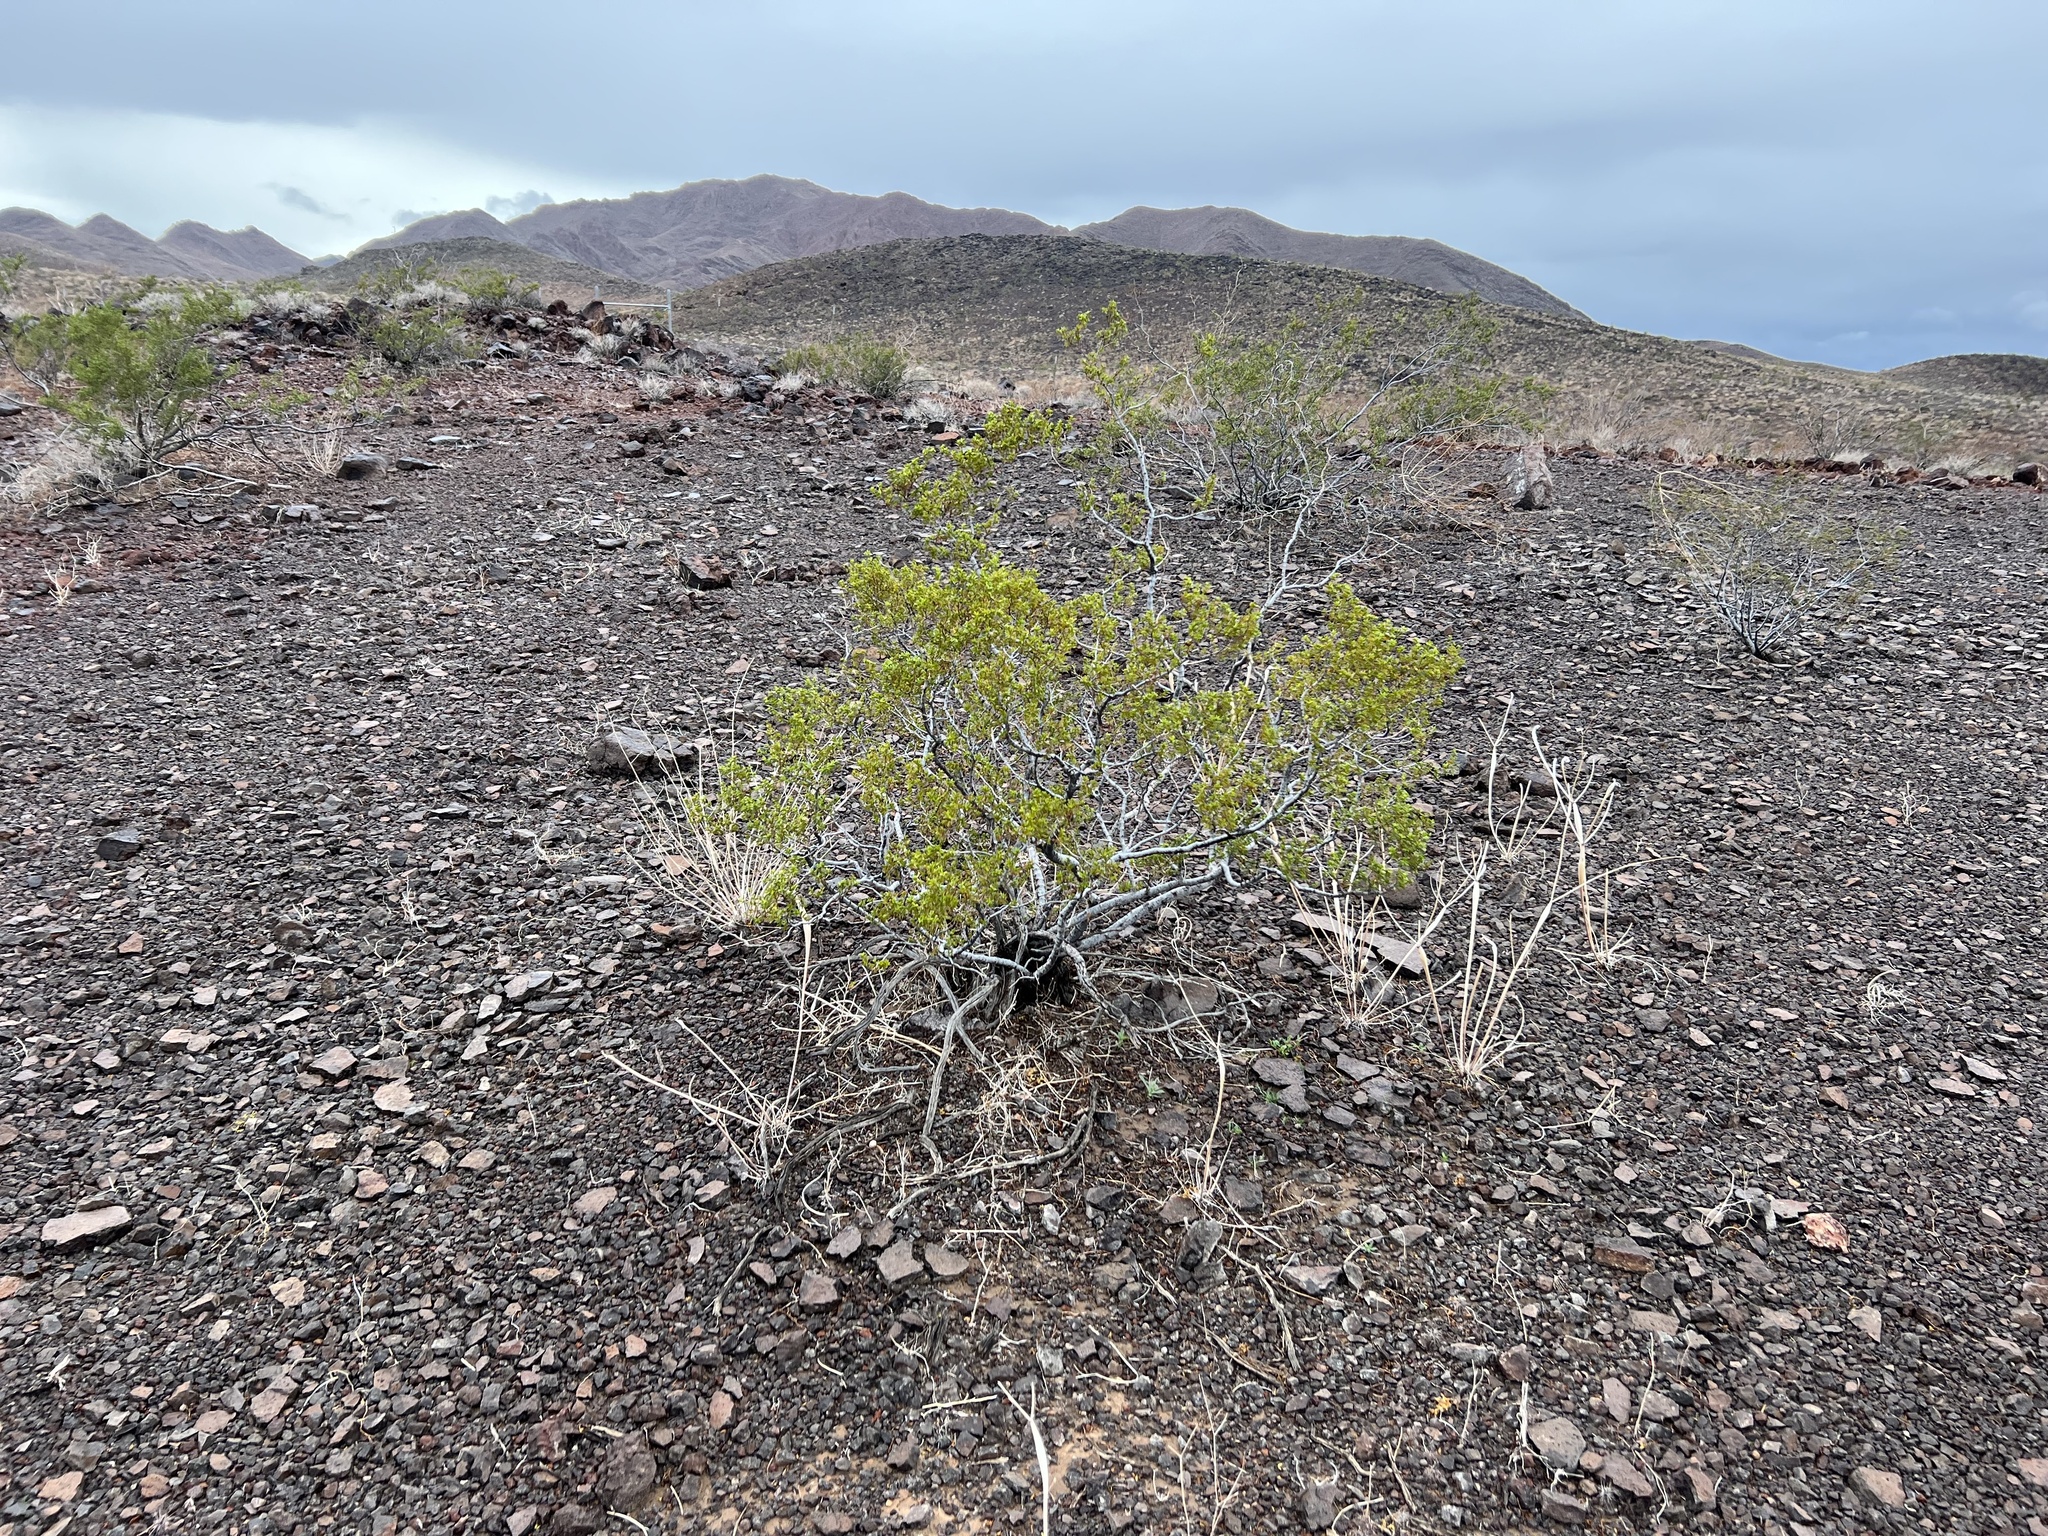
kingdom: Plantae
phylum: Tracheophyta
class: Magnoliopsida
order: Zygophyllales
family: Zygophyllaceae
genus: Larrea
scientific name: Larrea tridentata
